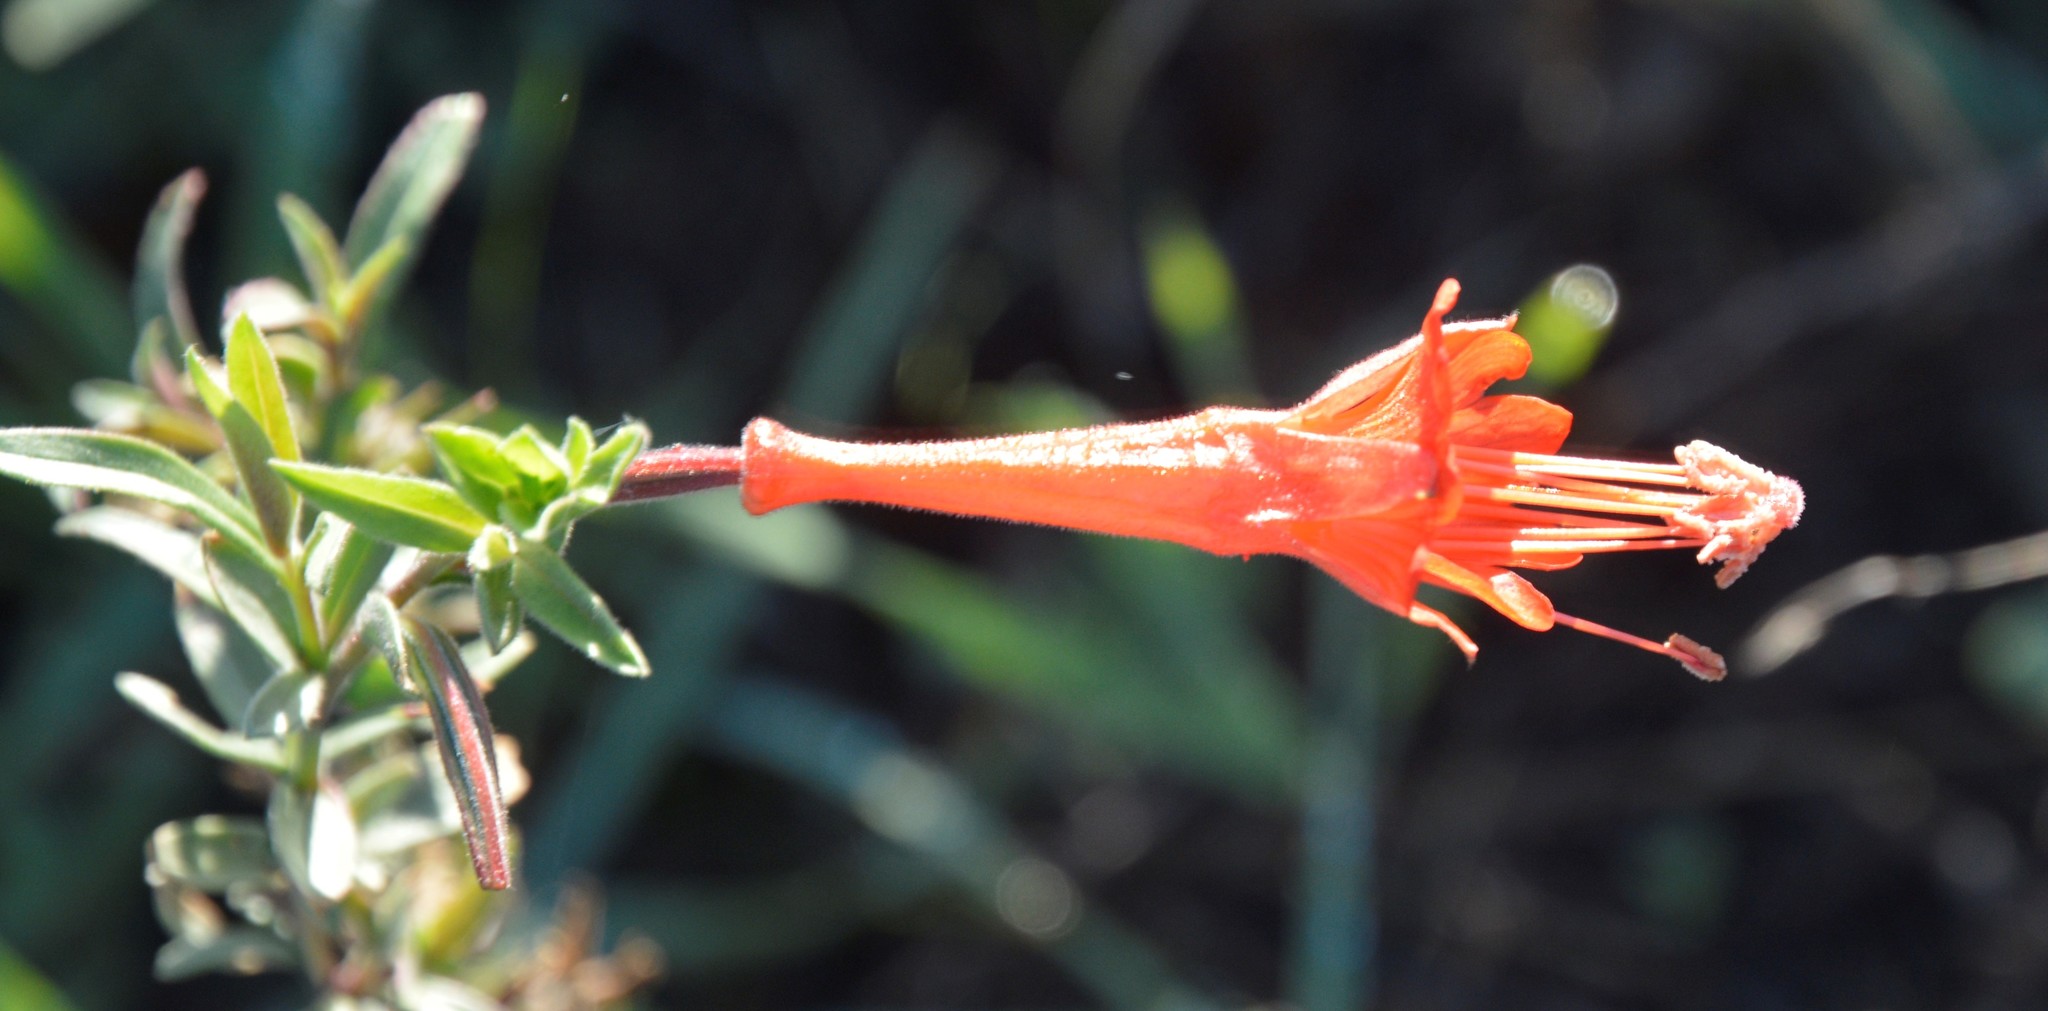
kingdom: Plantae
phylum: Tracheophyta
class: Magnoliopsida
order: Myrtales
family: Onagraceae
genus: Epilobium
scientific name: Epilobium canum
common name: California-fuchsia
